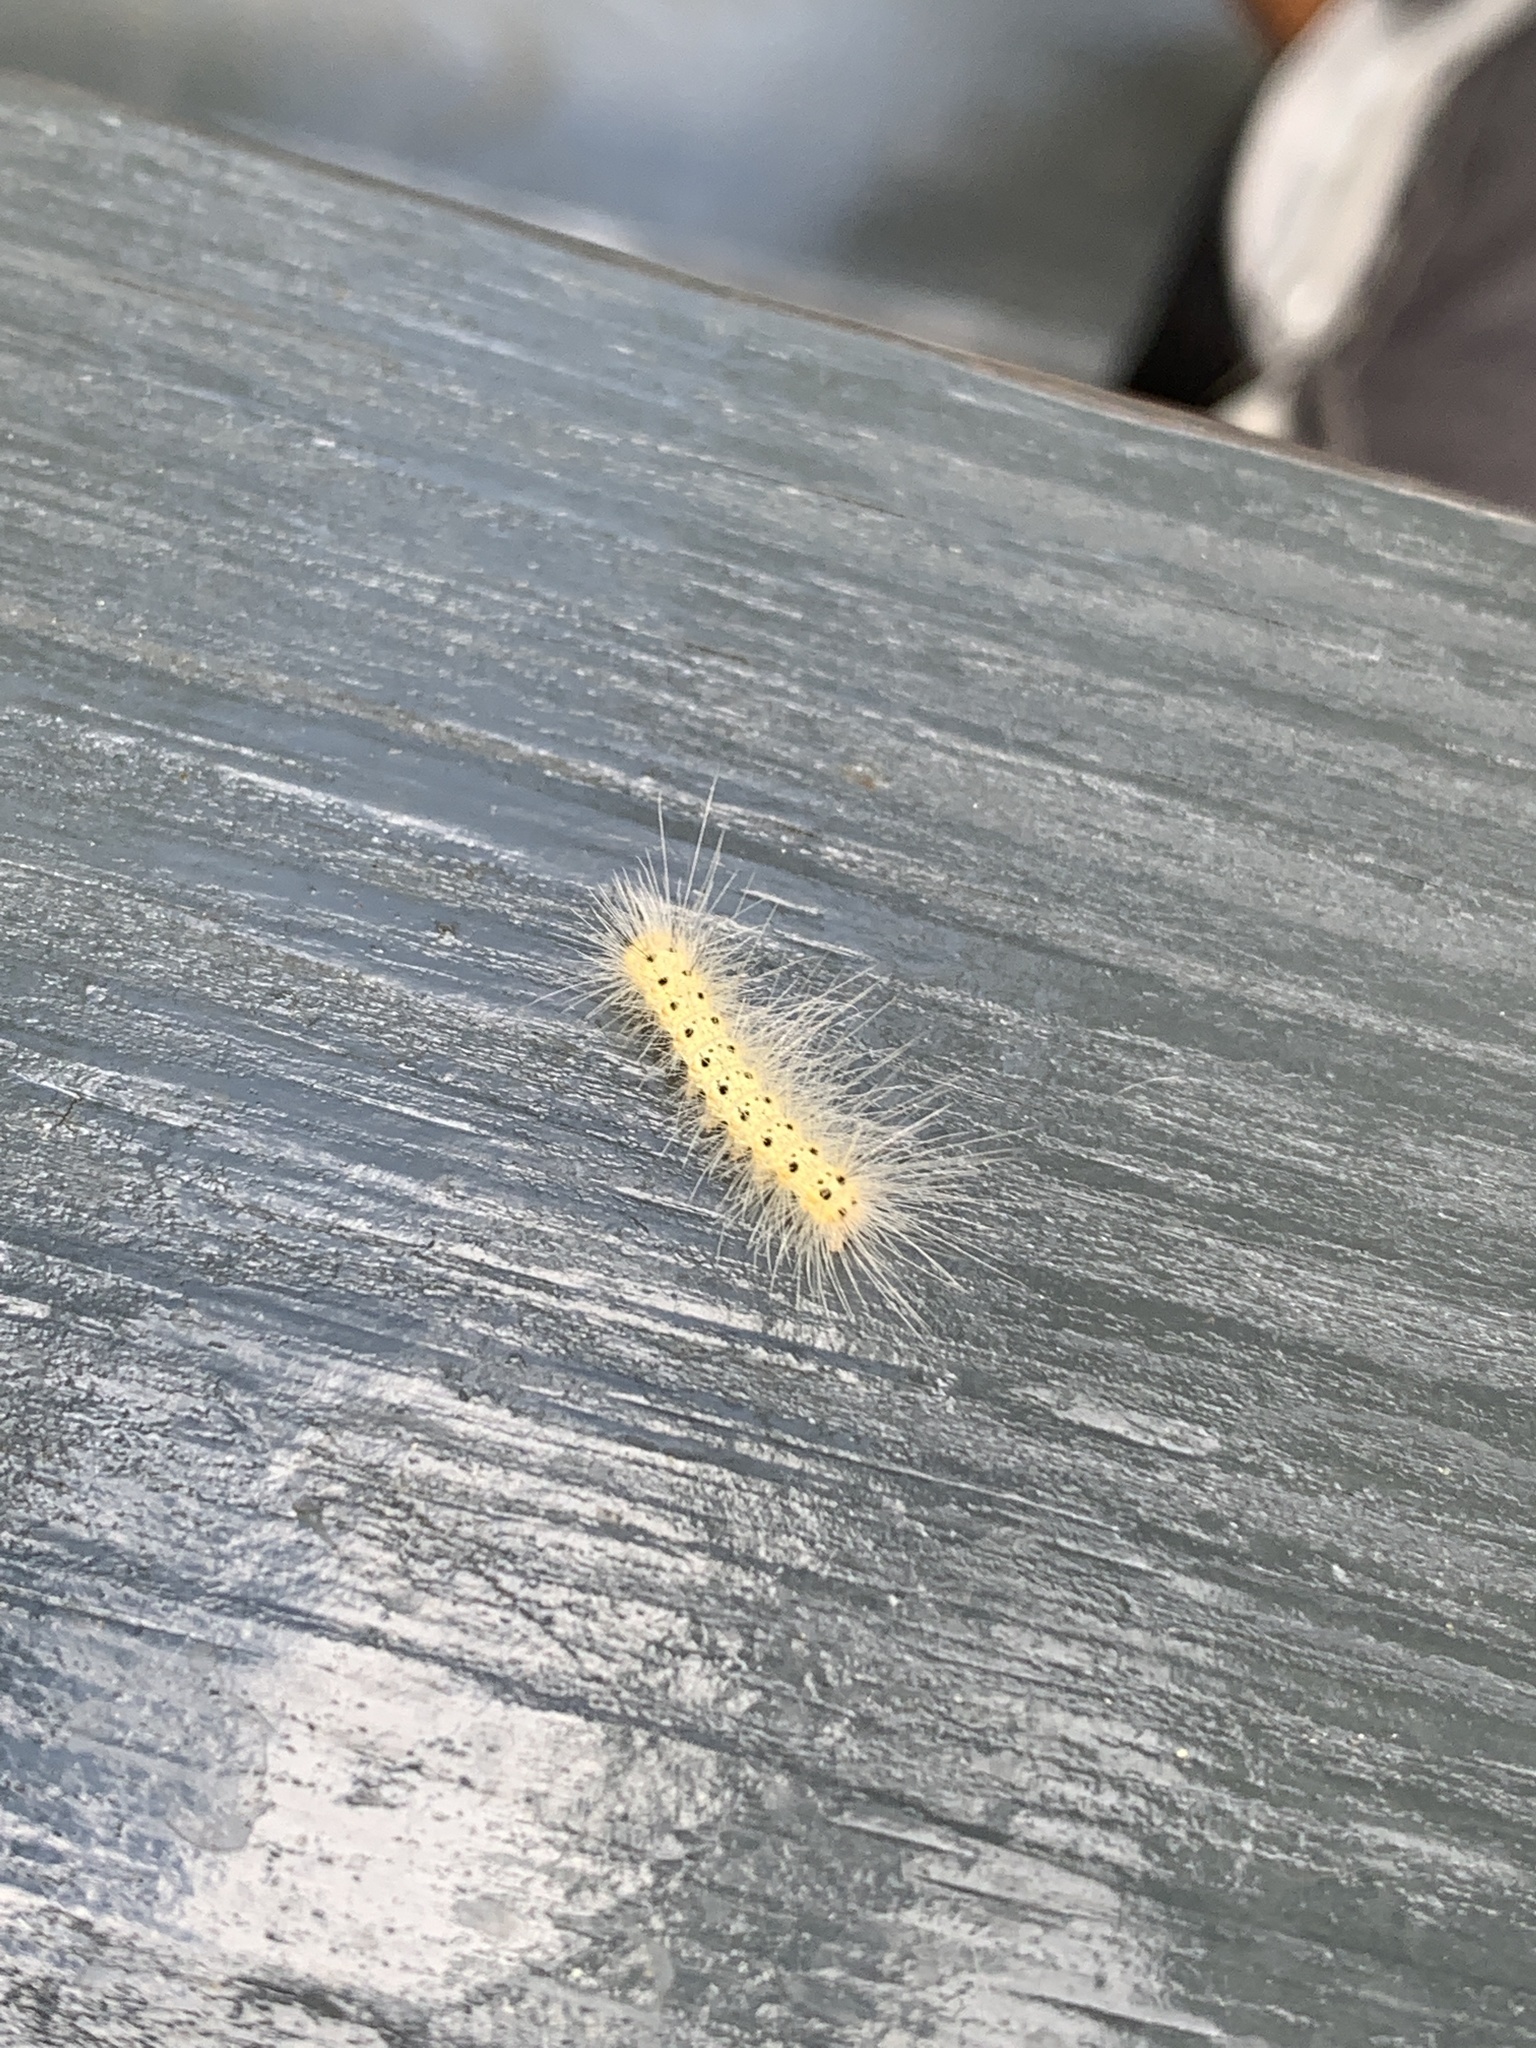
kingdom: Animalia
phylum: Arthropoda
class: Insecta
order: Lepidoptera
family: Erebidae
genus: Hyphantria
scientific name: Hyphantria cunea
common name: American white moth
